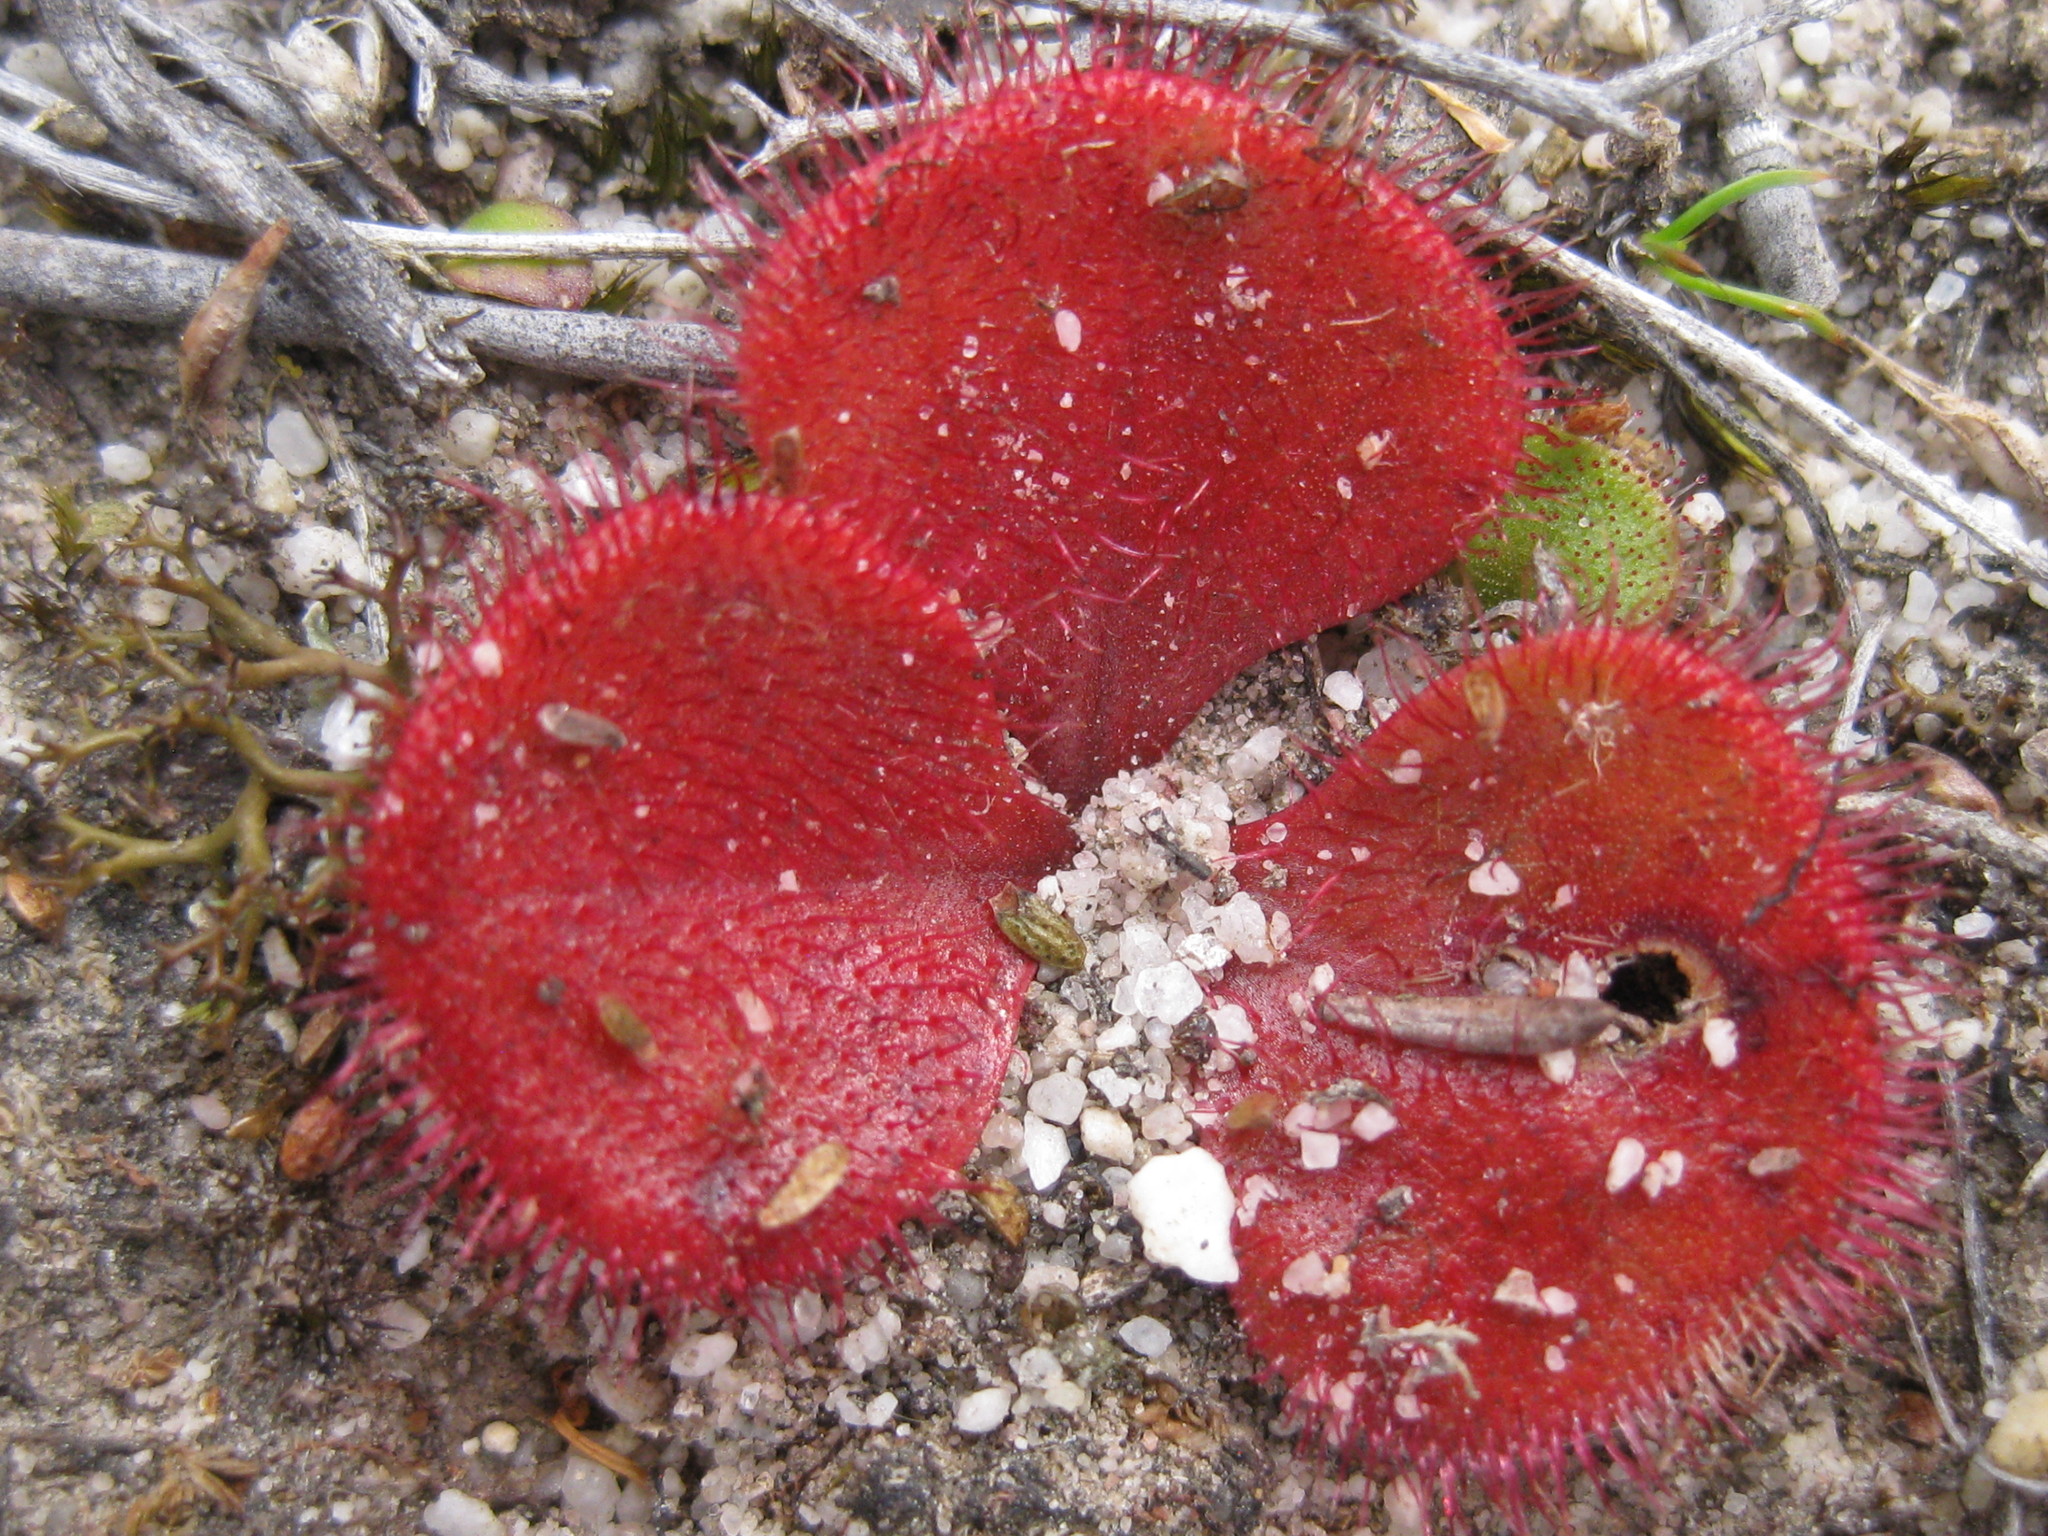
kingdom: Plantae
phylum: Tracheophyta
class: Magnoliopsida
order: Caryophyllales
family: Droseraceae
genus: Drosera
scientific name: Drosera erythrorhiza
